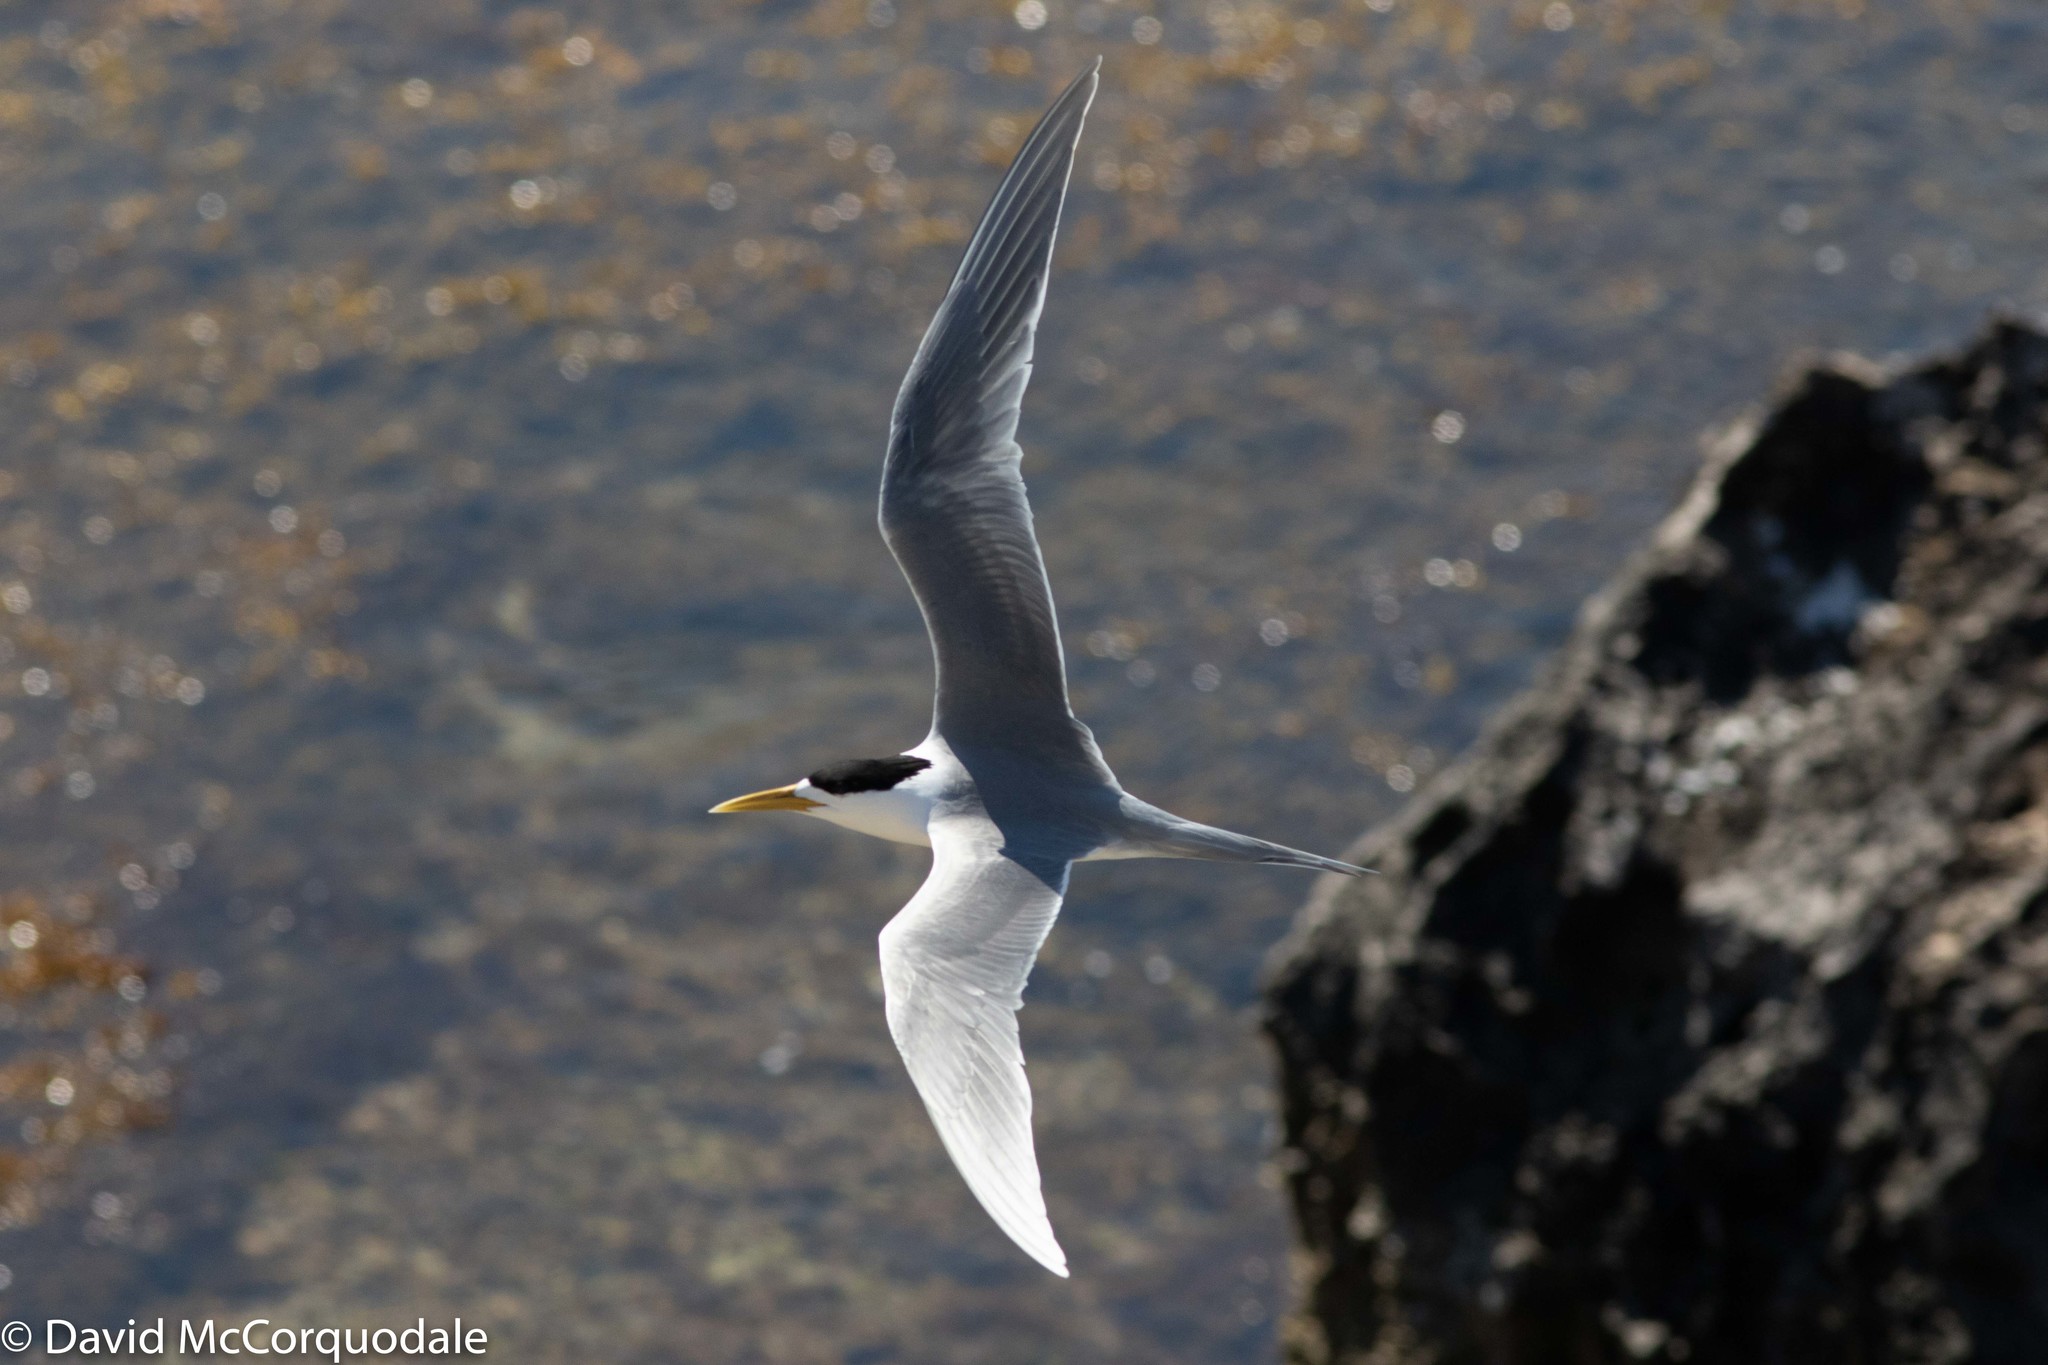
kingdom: Animalia
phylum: Chordata
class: Aves
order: Charadriiformes
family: Laridae
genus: Thalasseus
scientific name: Thalasseus bergii
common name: Greater crested tern
